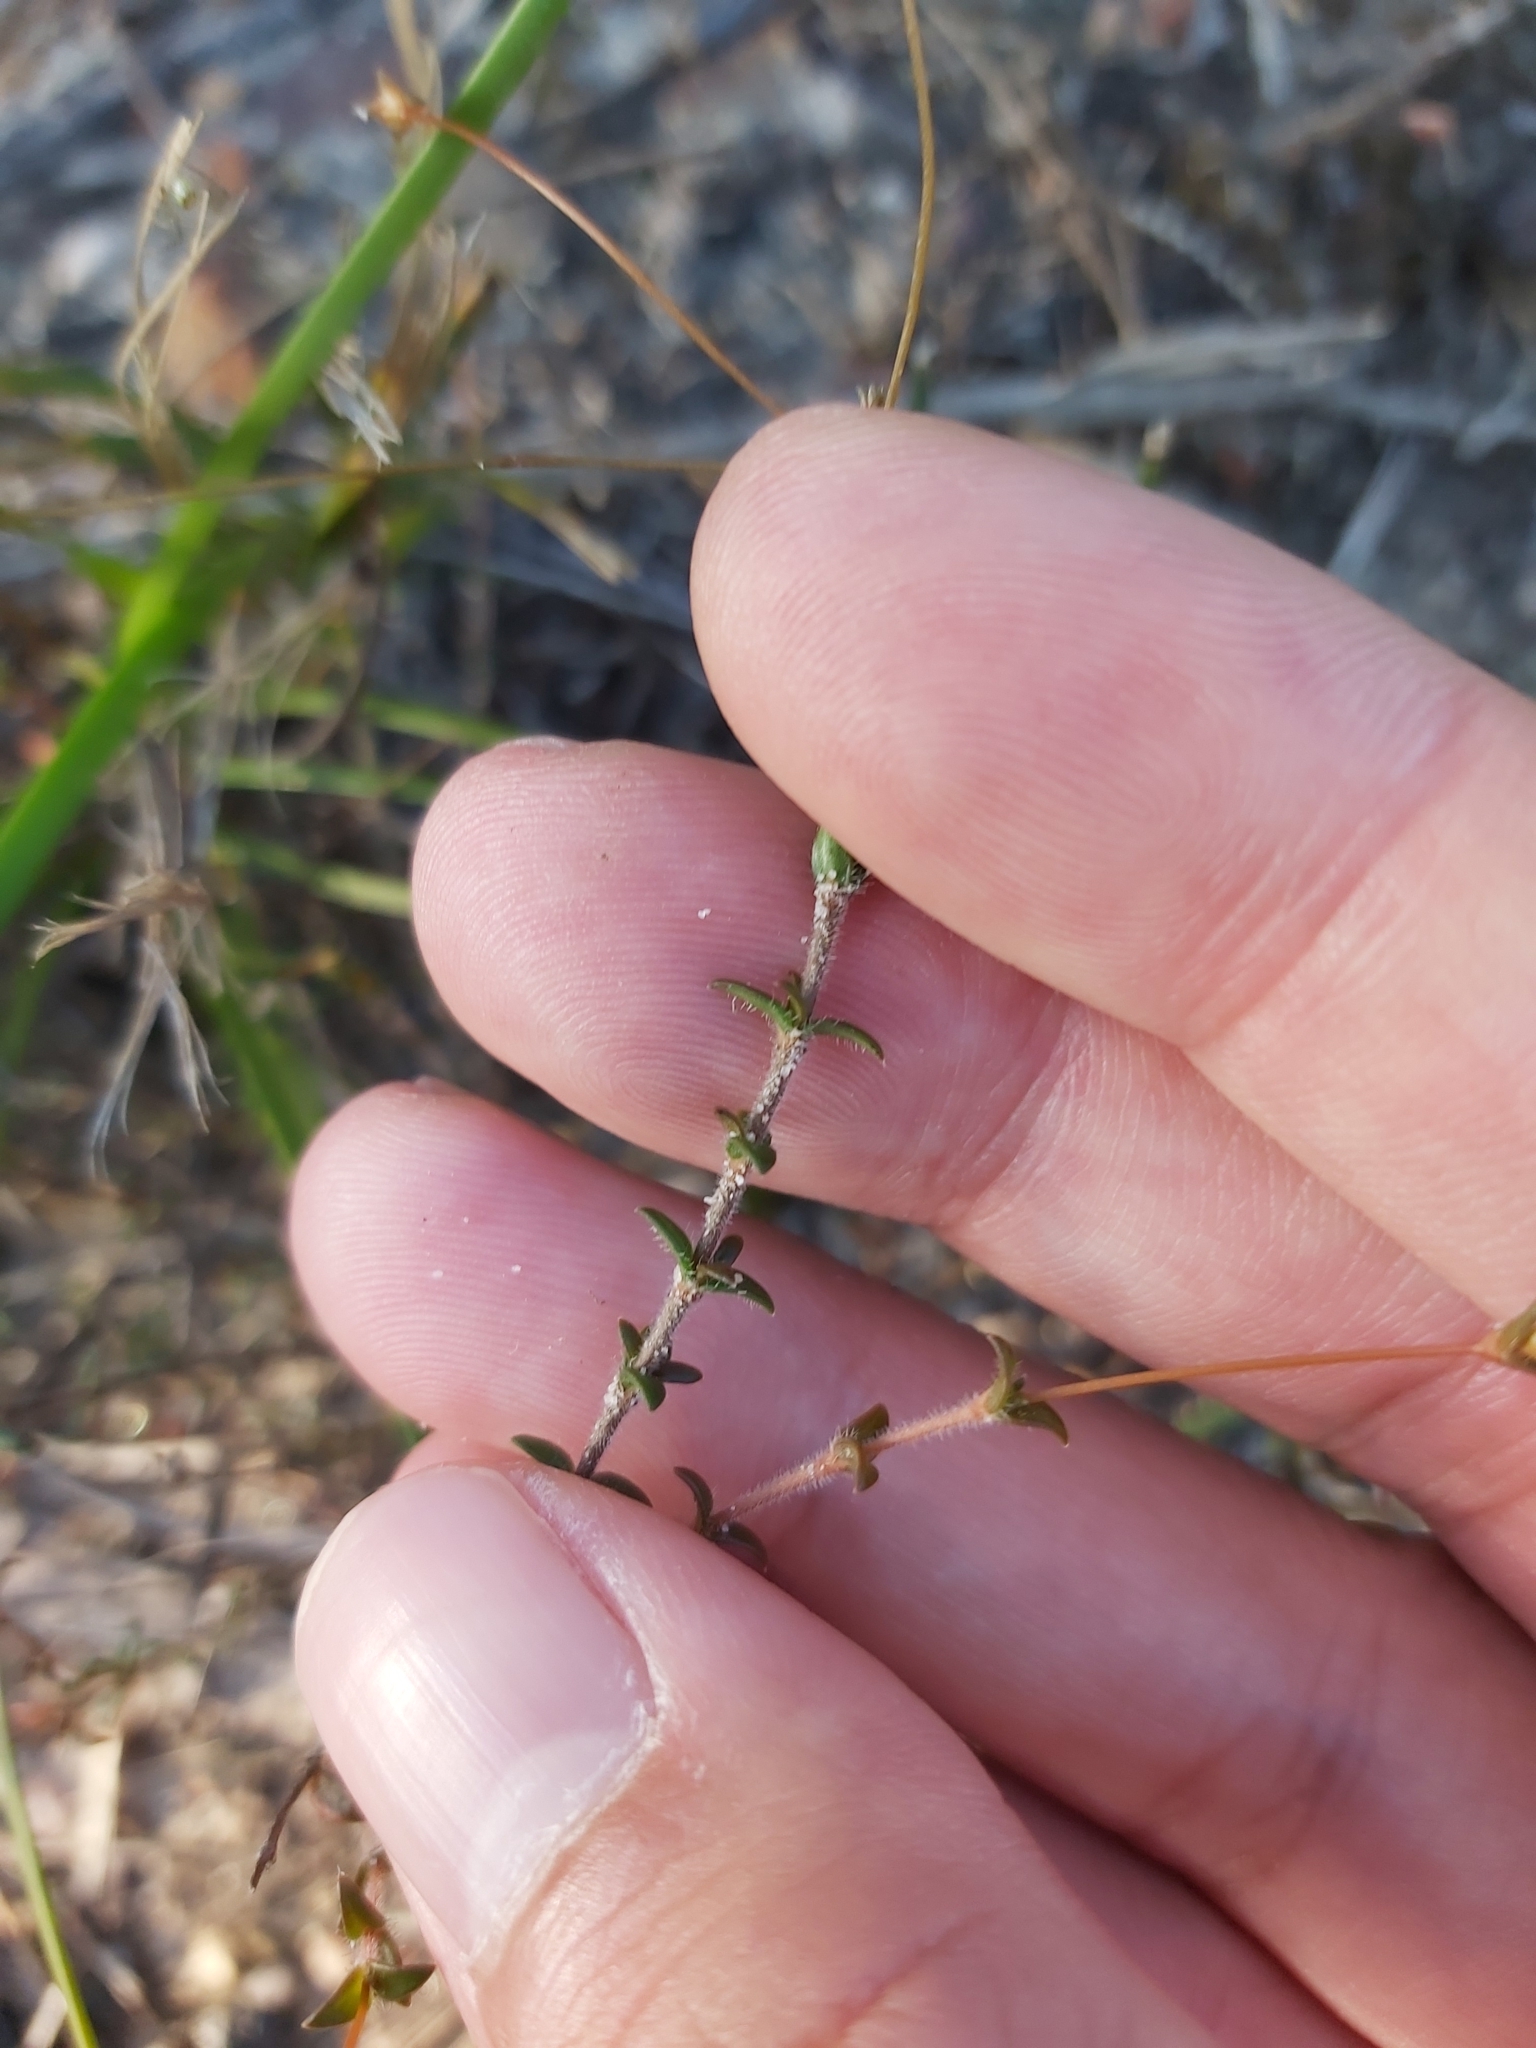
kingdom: Plantae
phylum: Tracheophyta
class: Magnoliopsida
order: Gentianales
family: Loganiaceae
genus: Mitrasacme
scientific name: Mitrasacme polymorpha
